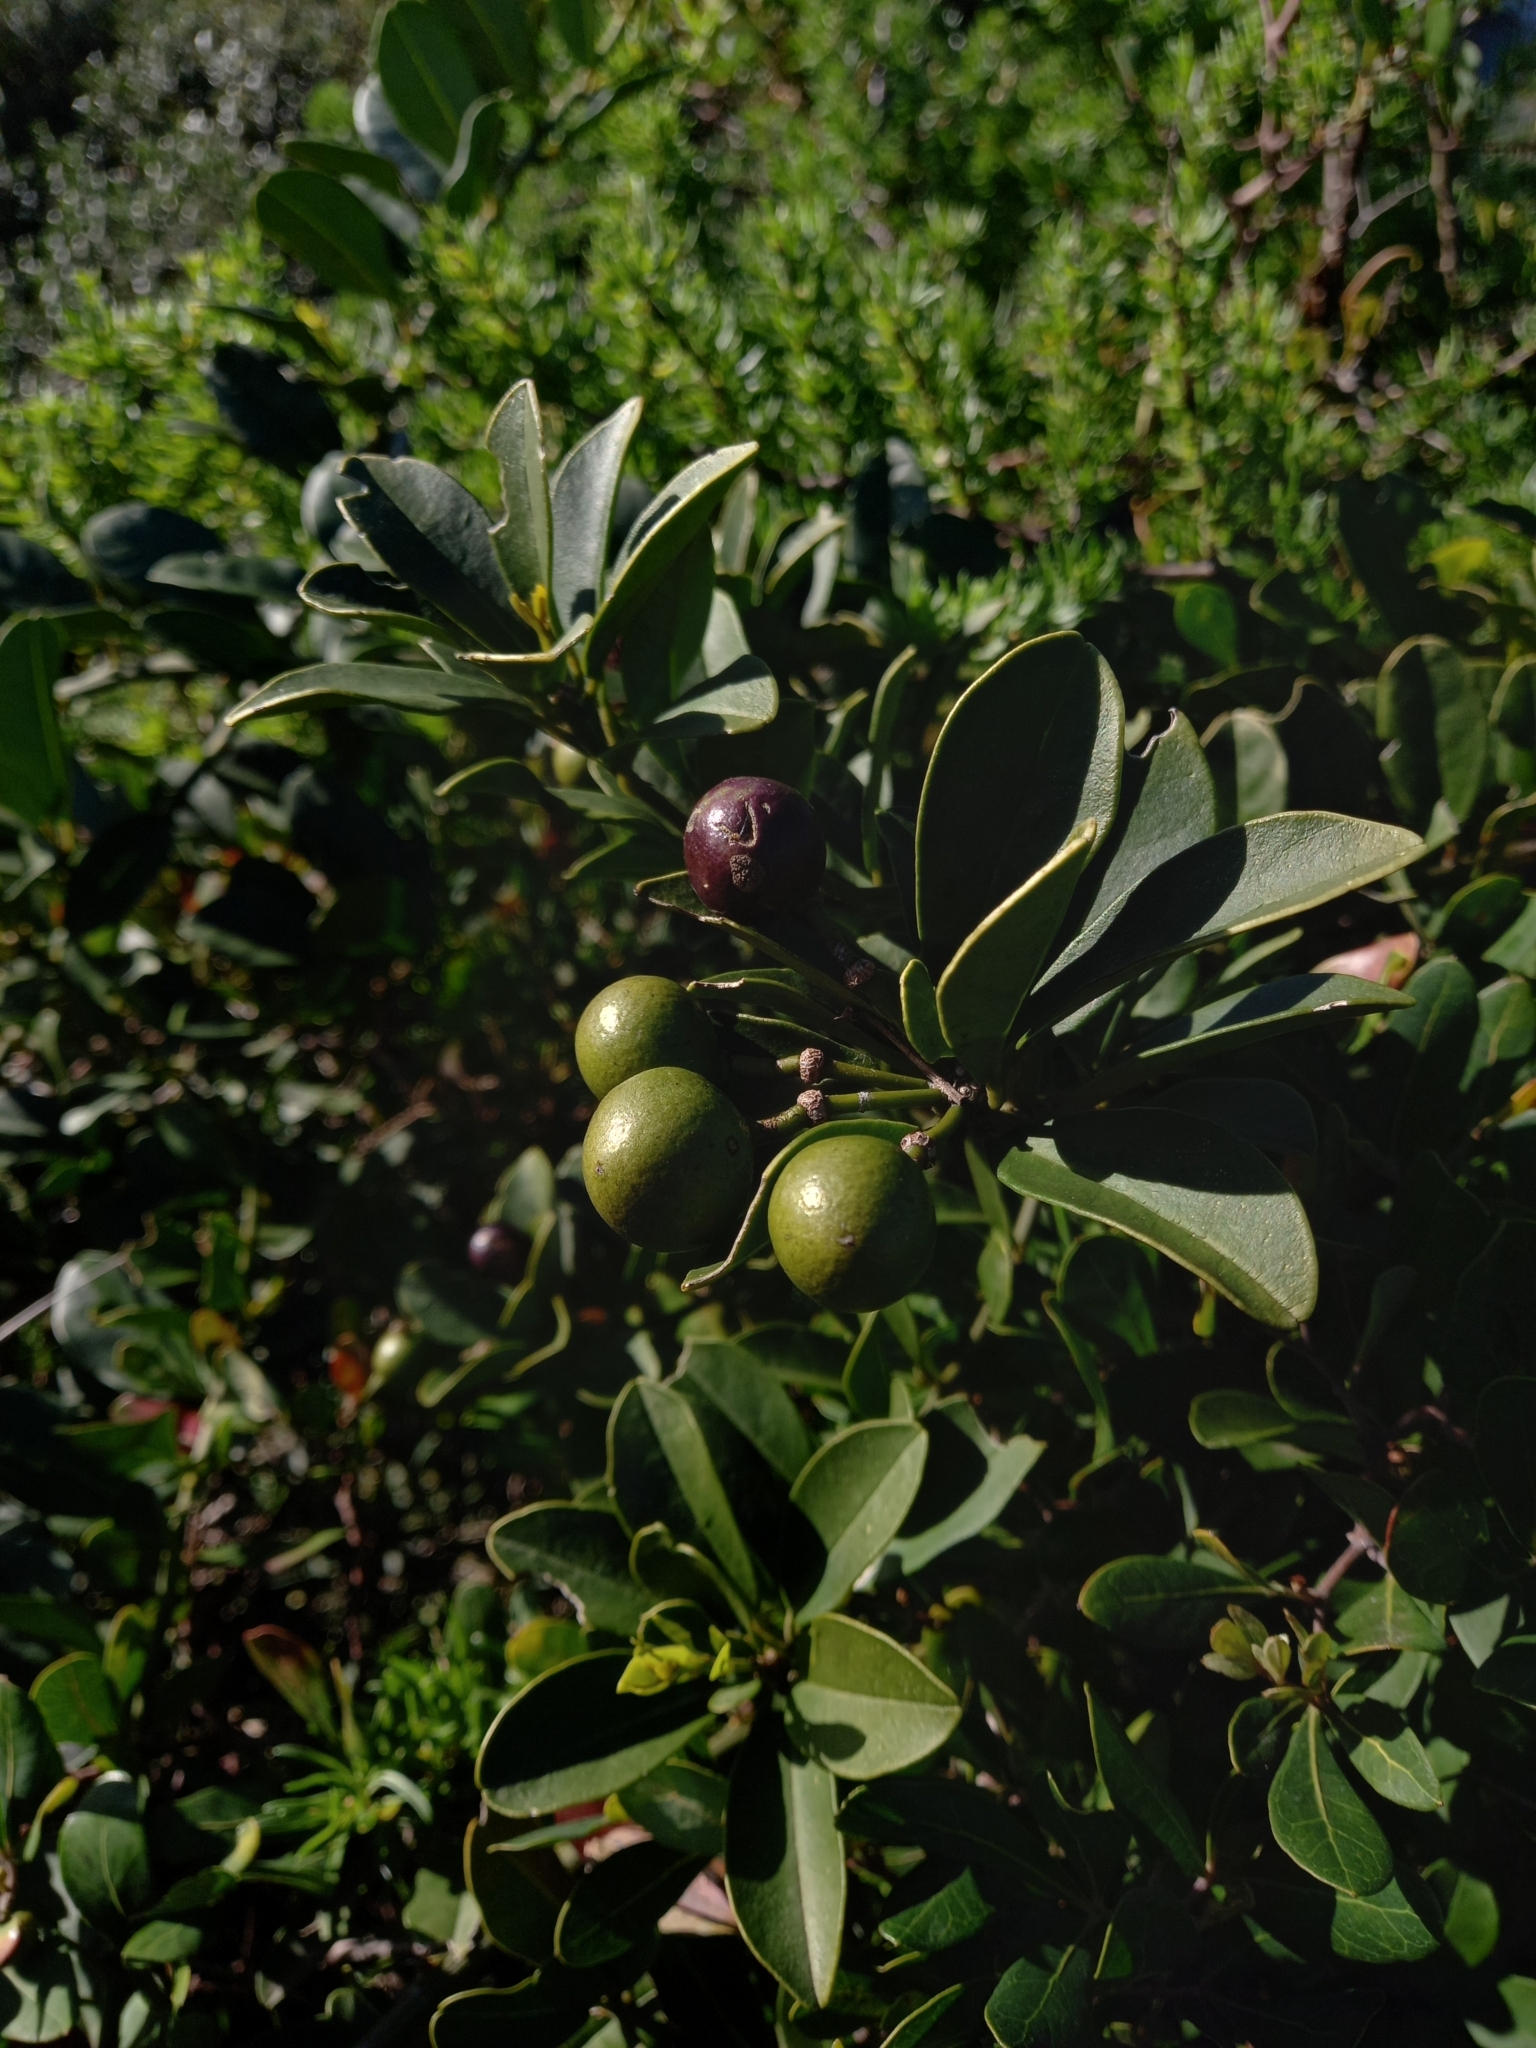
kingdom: Plantae
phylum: Tracheophyta
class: Magnoliopsida
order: Brassicales
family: Capparaceae
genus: Capparis
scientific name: Capparis sepiaria
